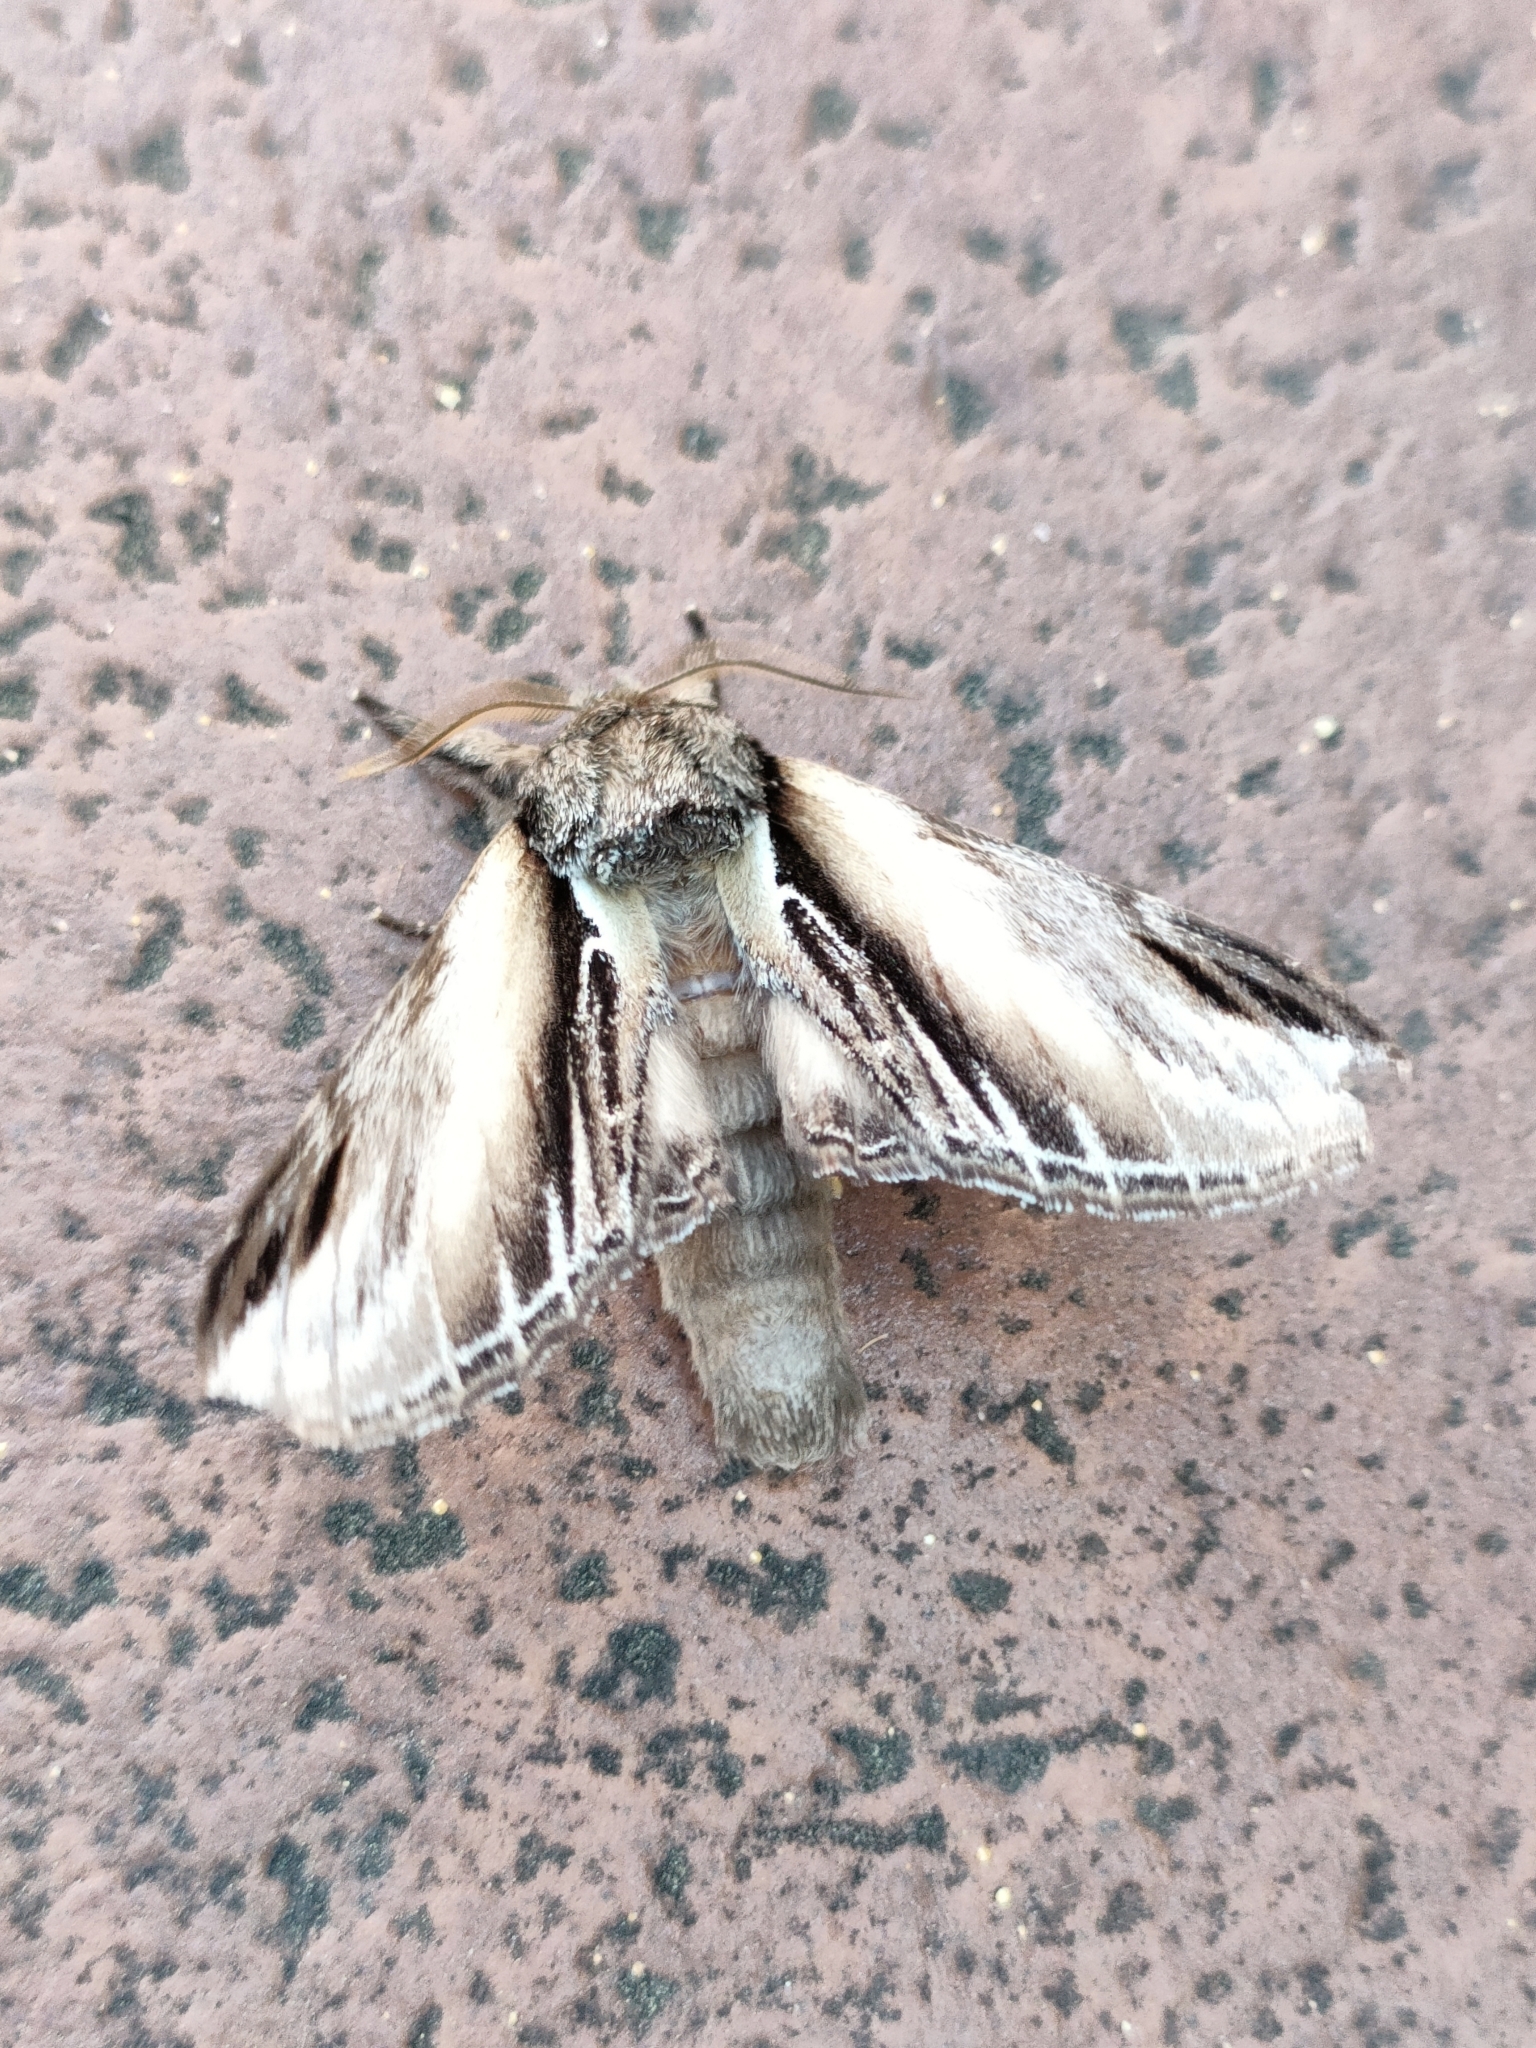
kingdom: Animalia
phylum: Arthropoda
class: Insecta
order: Lepidoptera
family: Notodontidae
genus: Pheosia
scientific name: Pheosia tremula
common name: Swallow prominent
